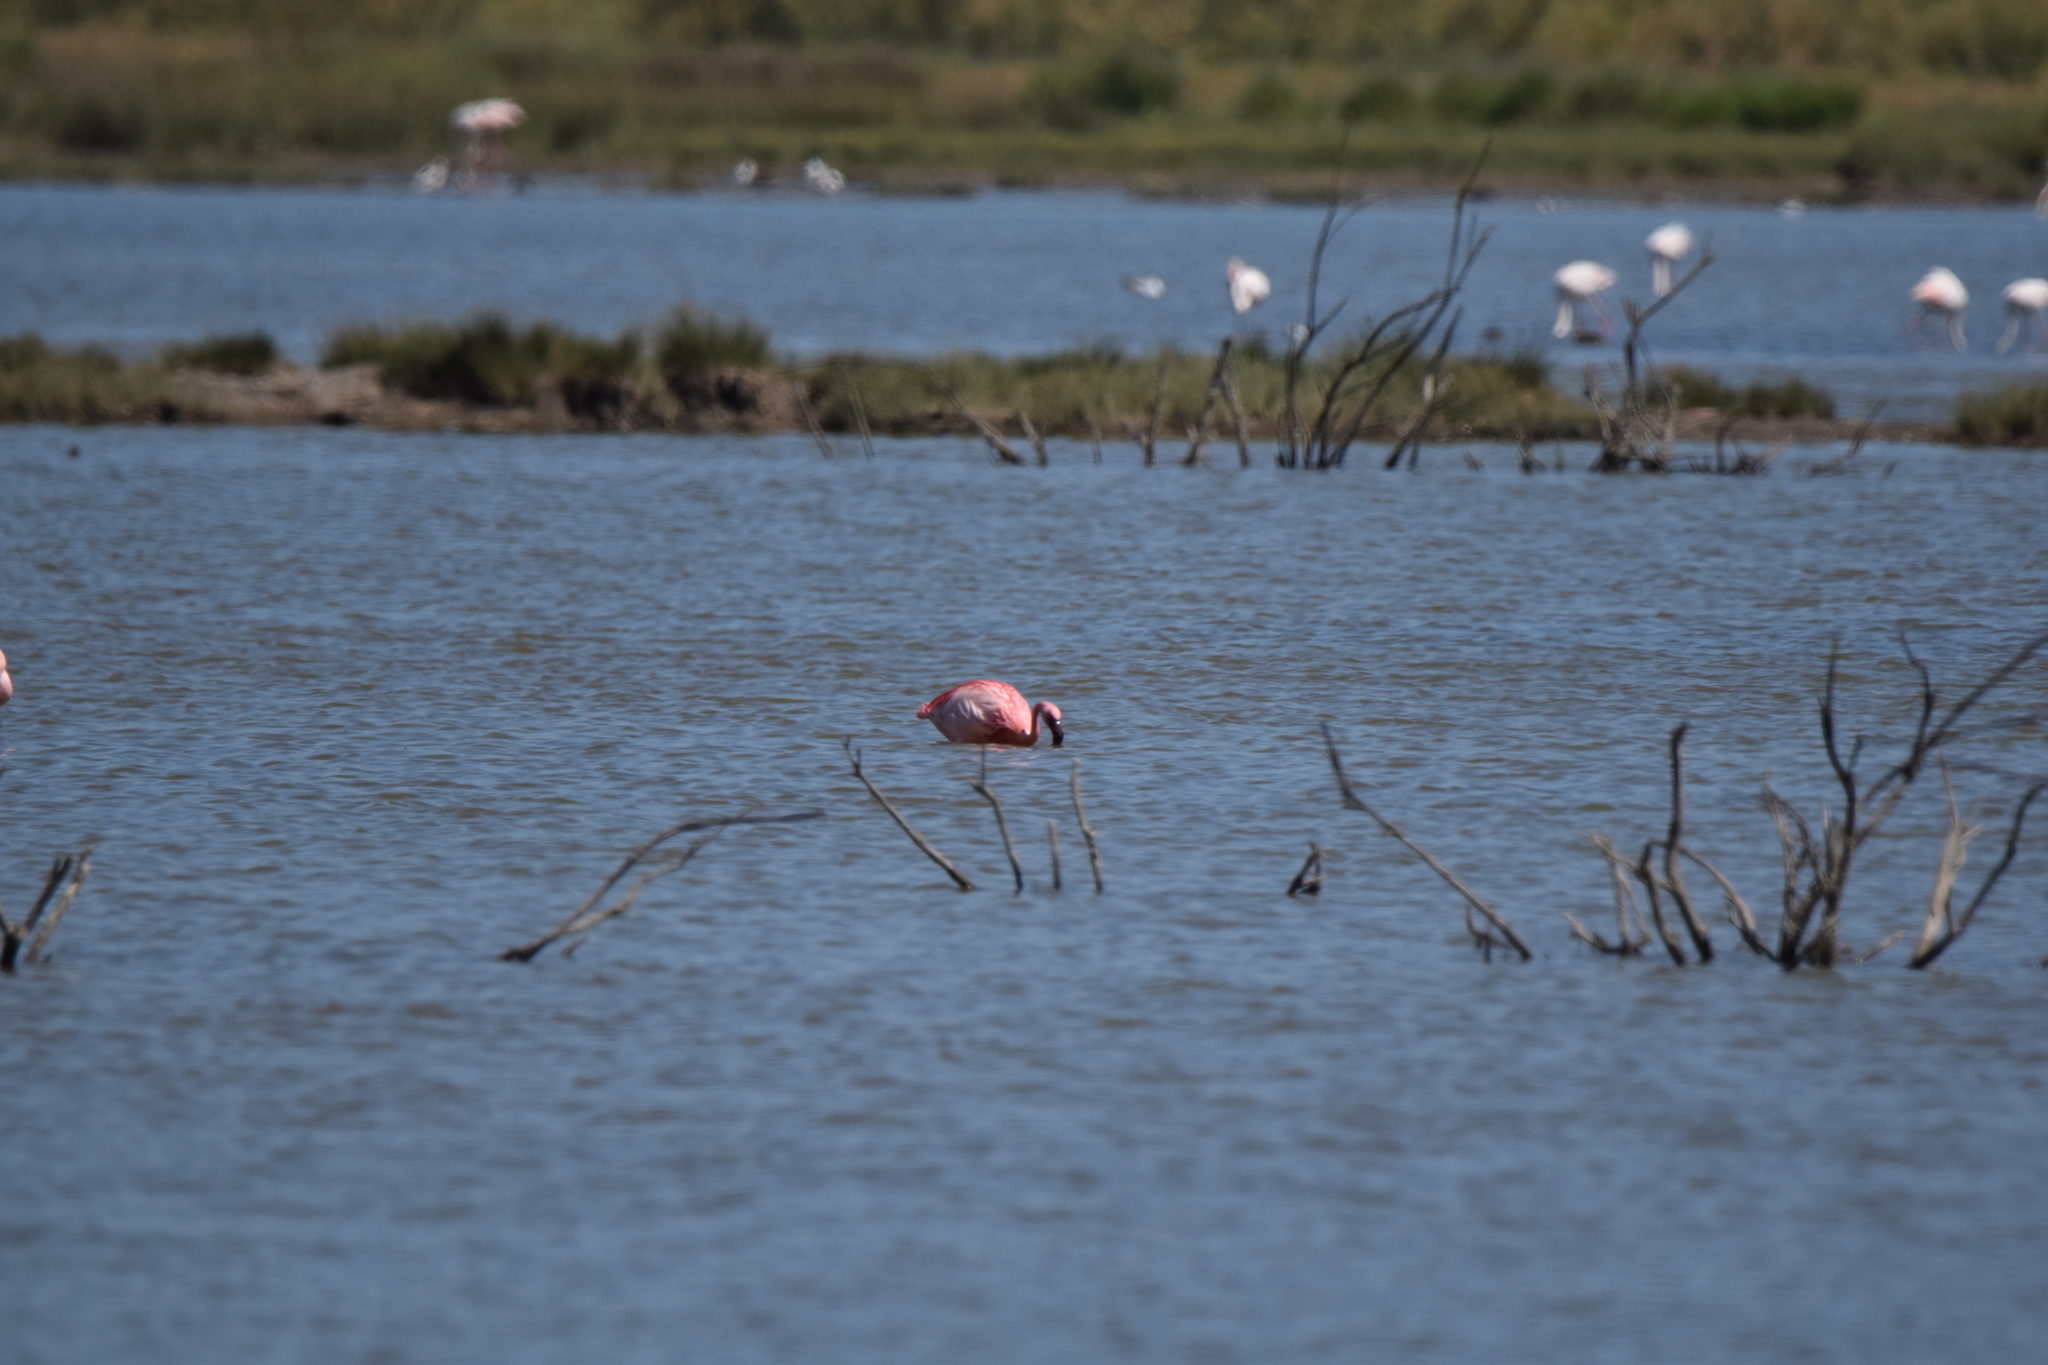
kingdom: Animalia
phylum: Chordata
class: Aves
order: Phoenicopteriformes
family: Phoenicopteridae
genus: Phoeniconaias
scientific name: Phoeniconaias minor
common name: Lesser flamingo
